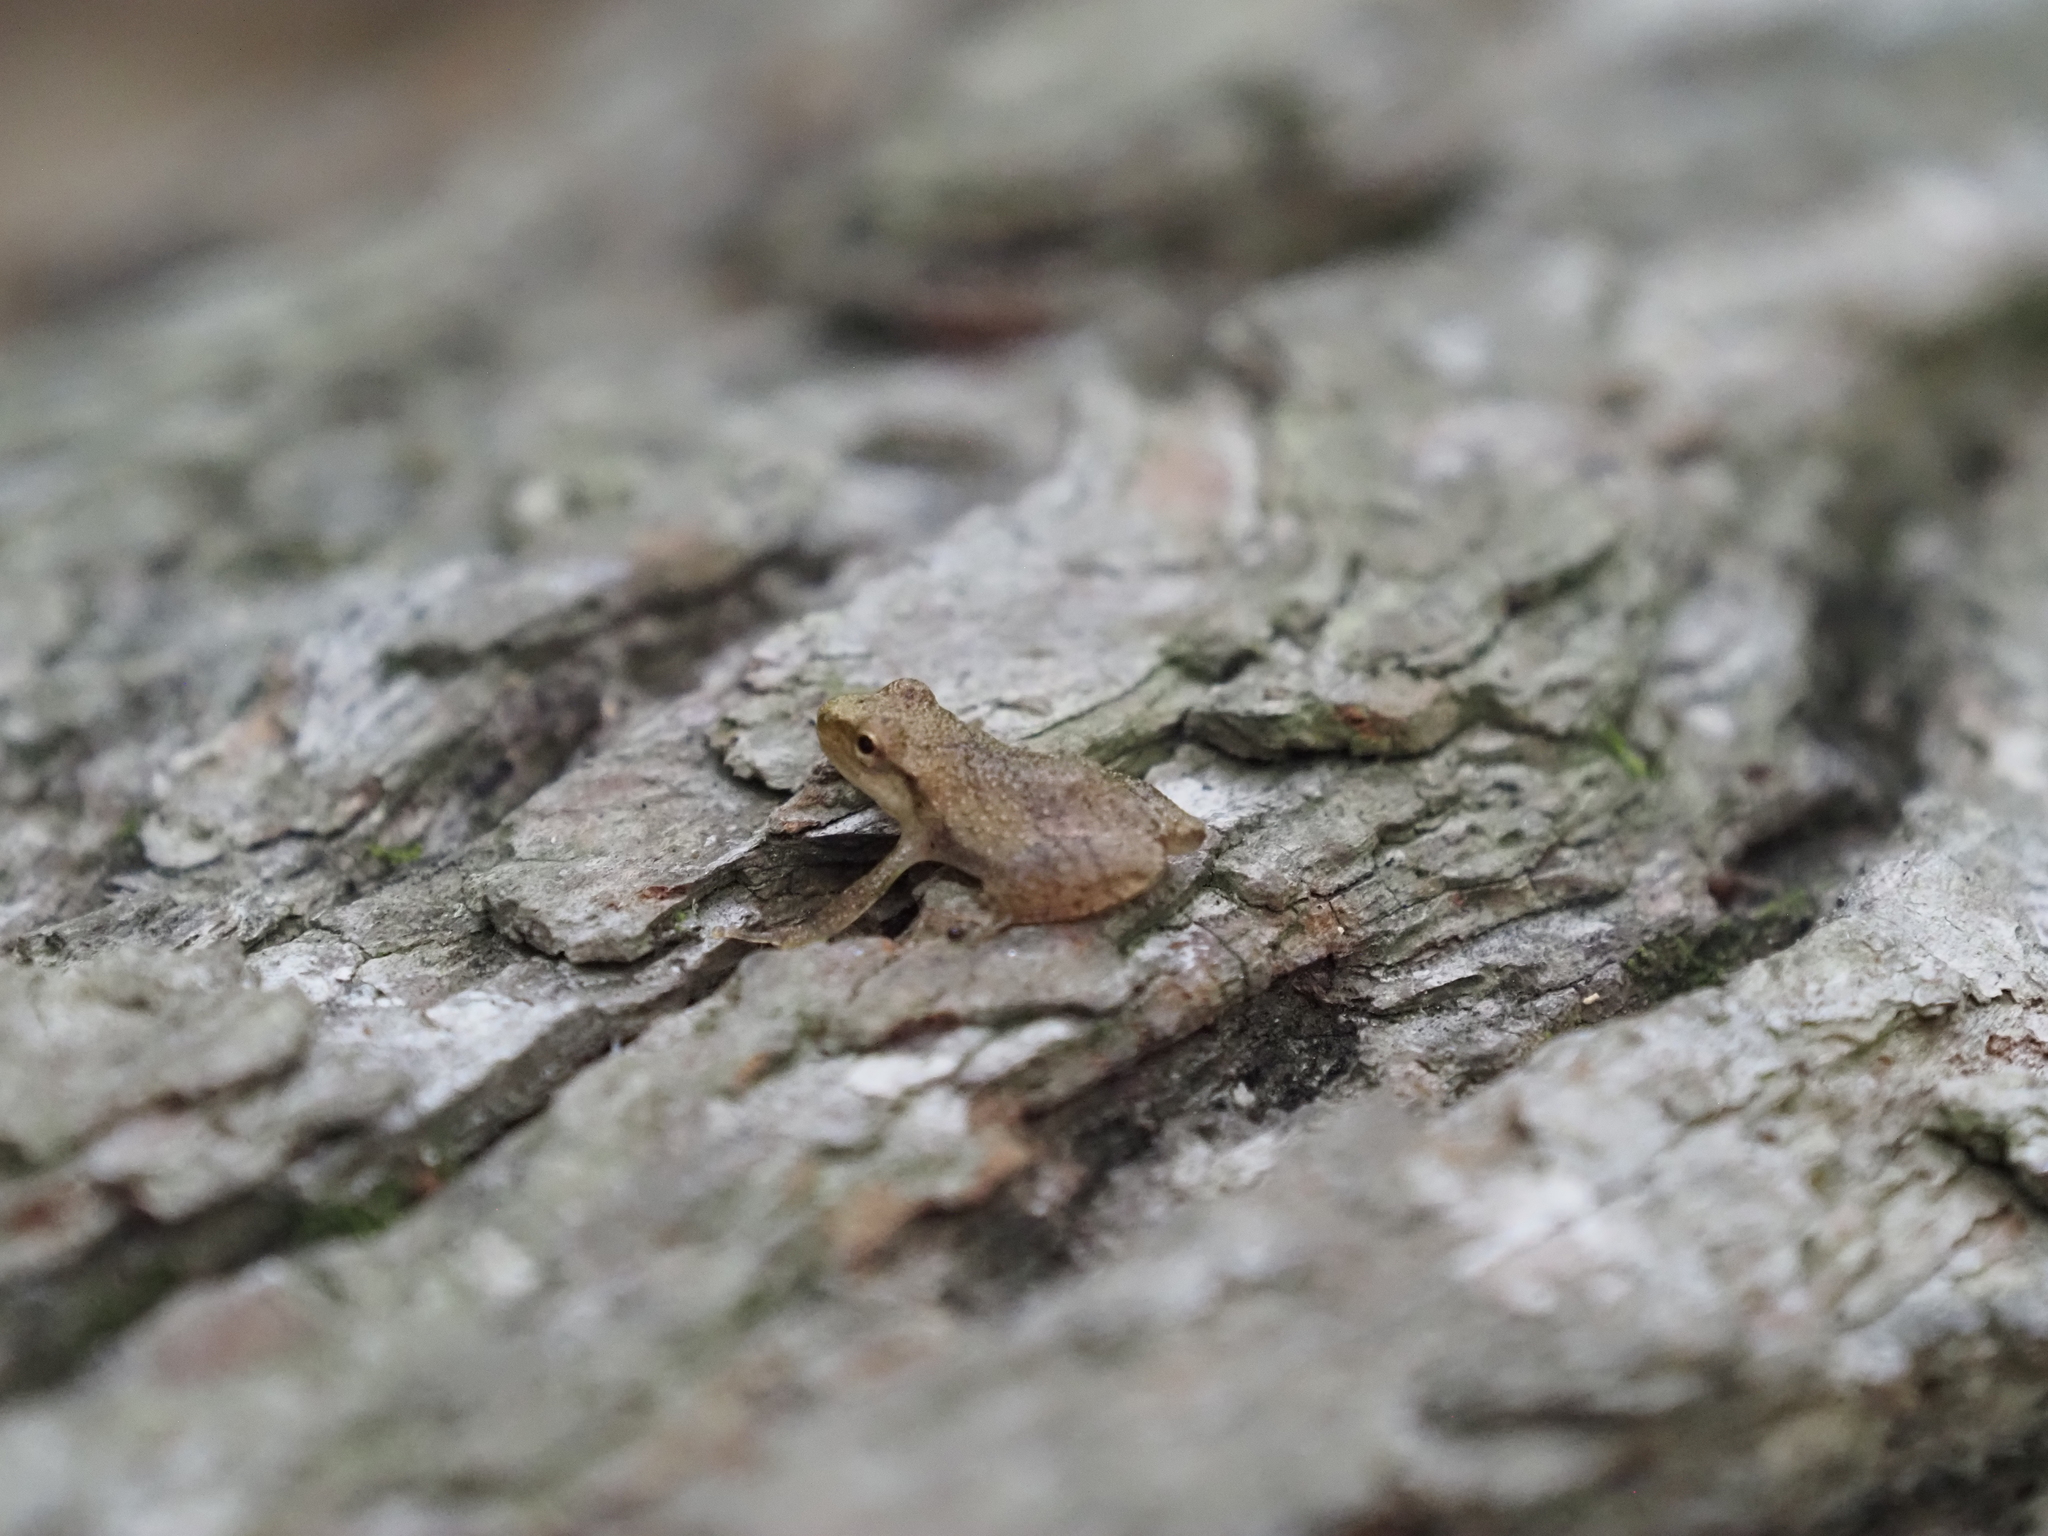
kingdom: Animalia
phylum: Chordata
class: Amphibia
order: Anura
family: Hylidae
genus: Pseudacris
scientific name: Pseudacris crucifer
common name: Spring peeper
